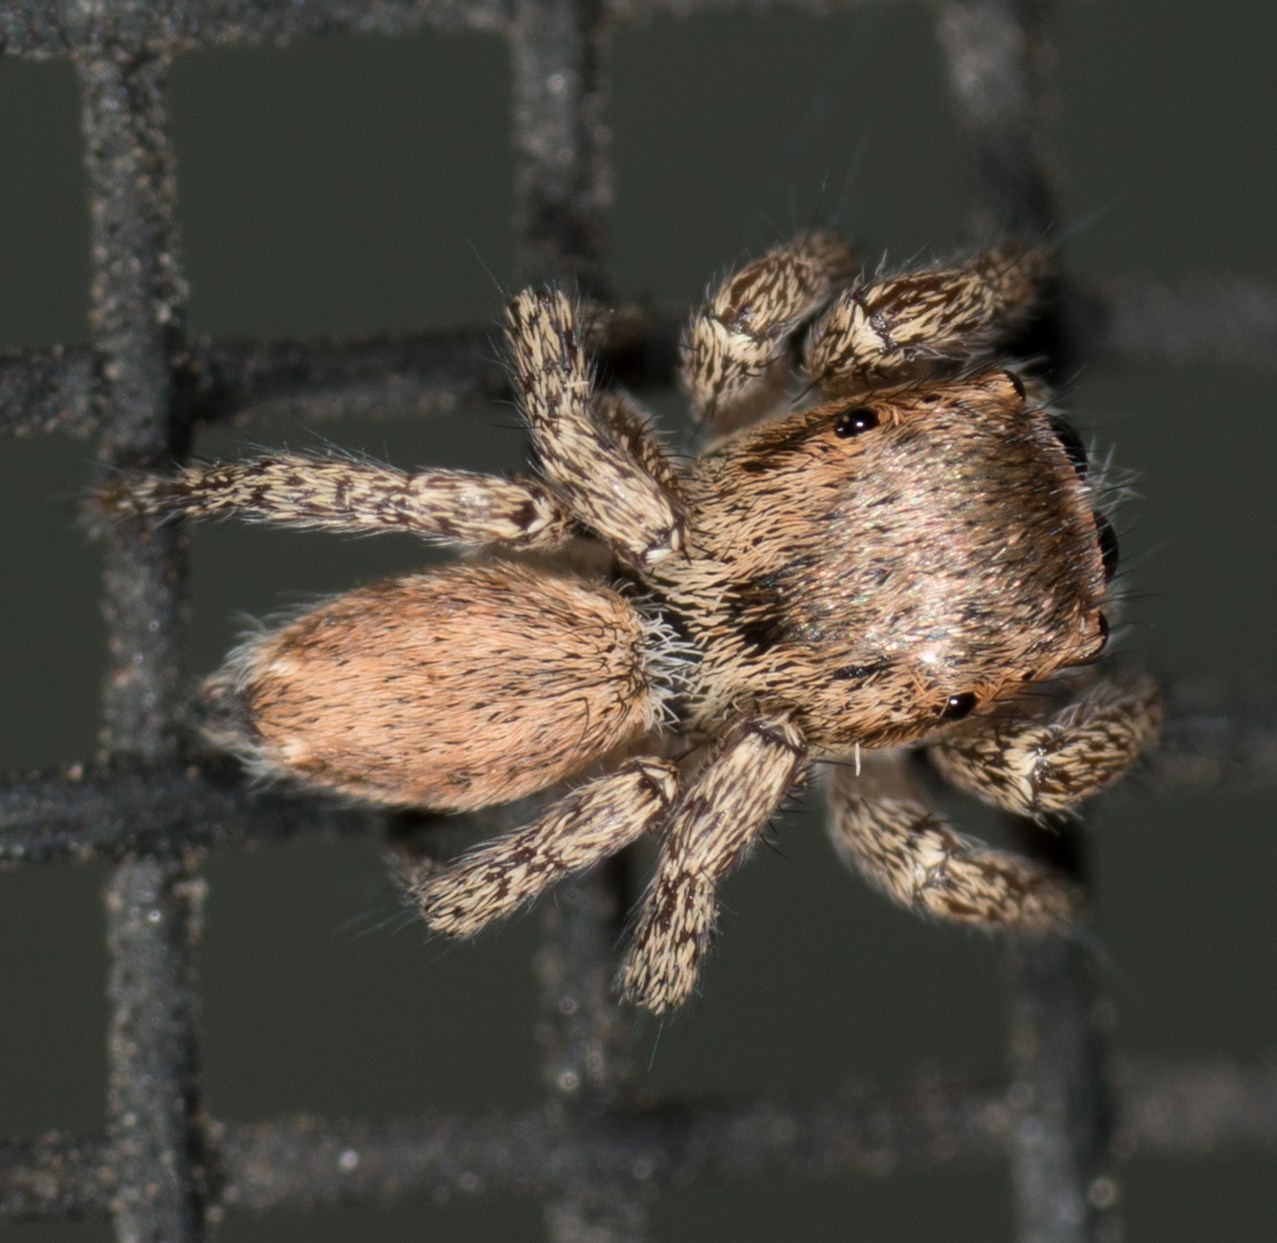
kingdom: Animalia
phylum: Arthropoda
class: Arachnida
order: Araneae
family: Salticidae
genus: Habronattus
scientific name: Habronattus pyrrithrix
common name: Jumping spider
